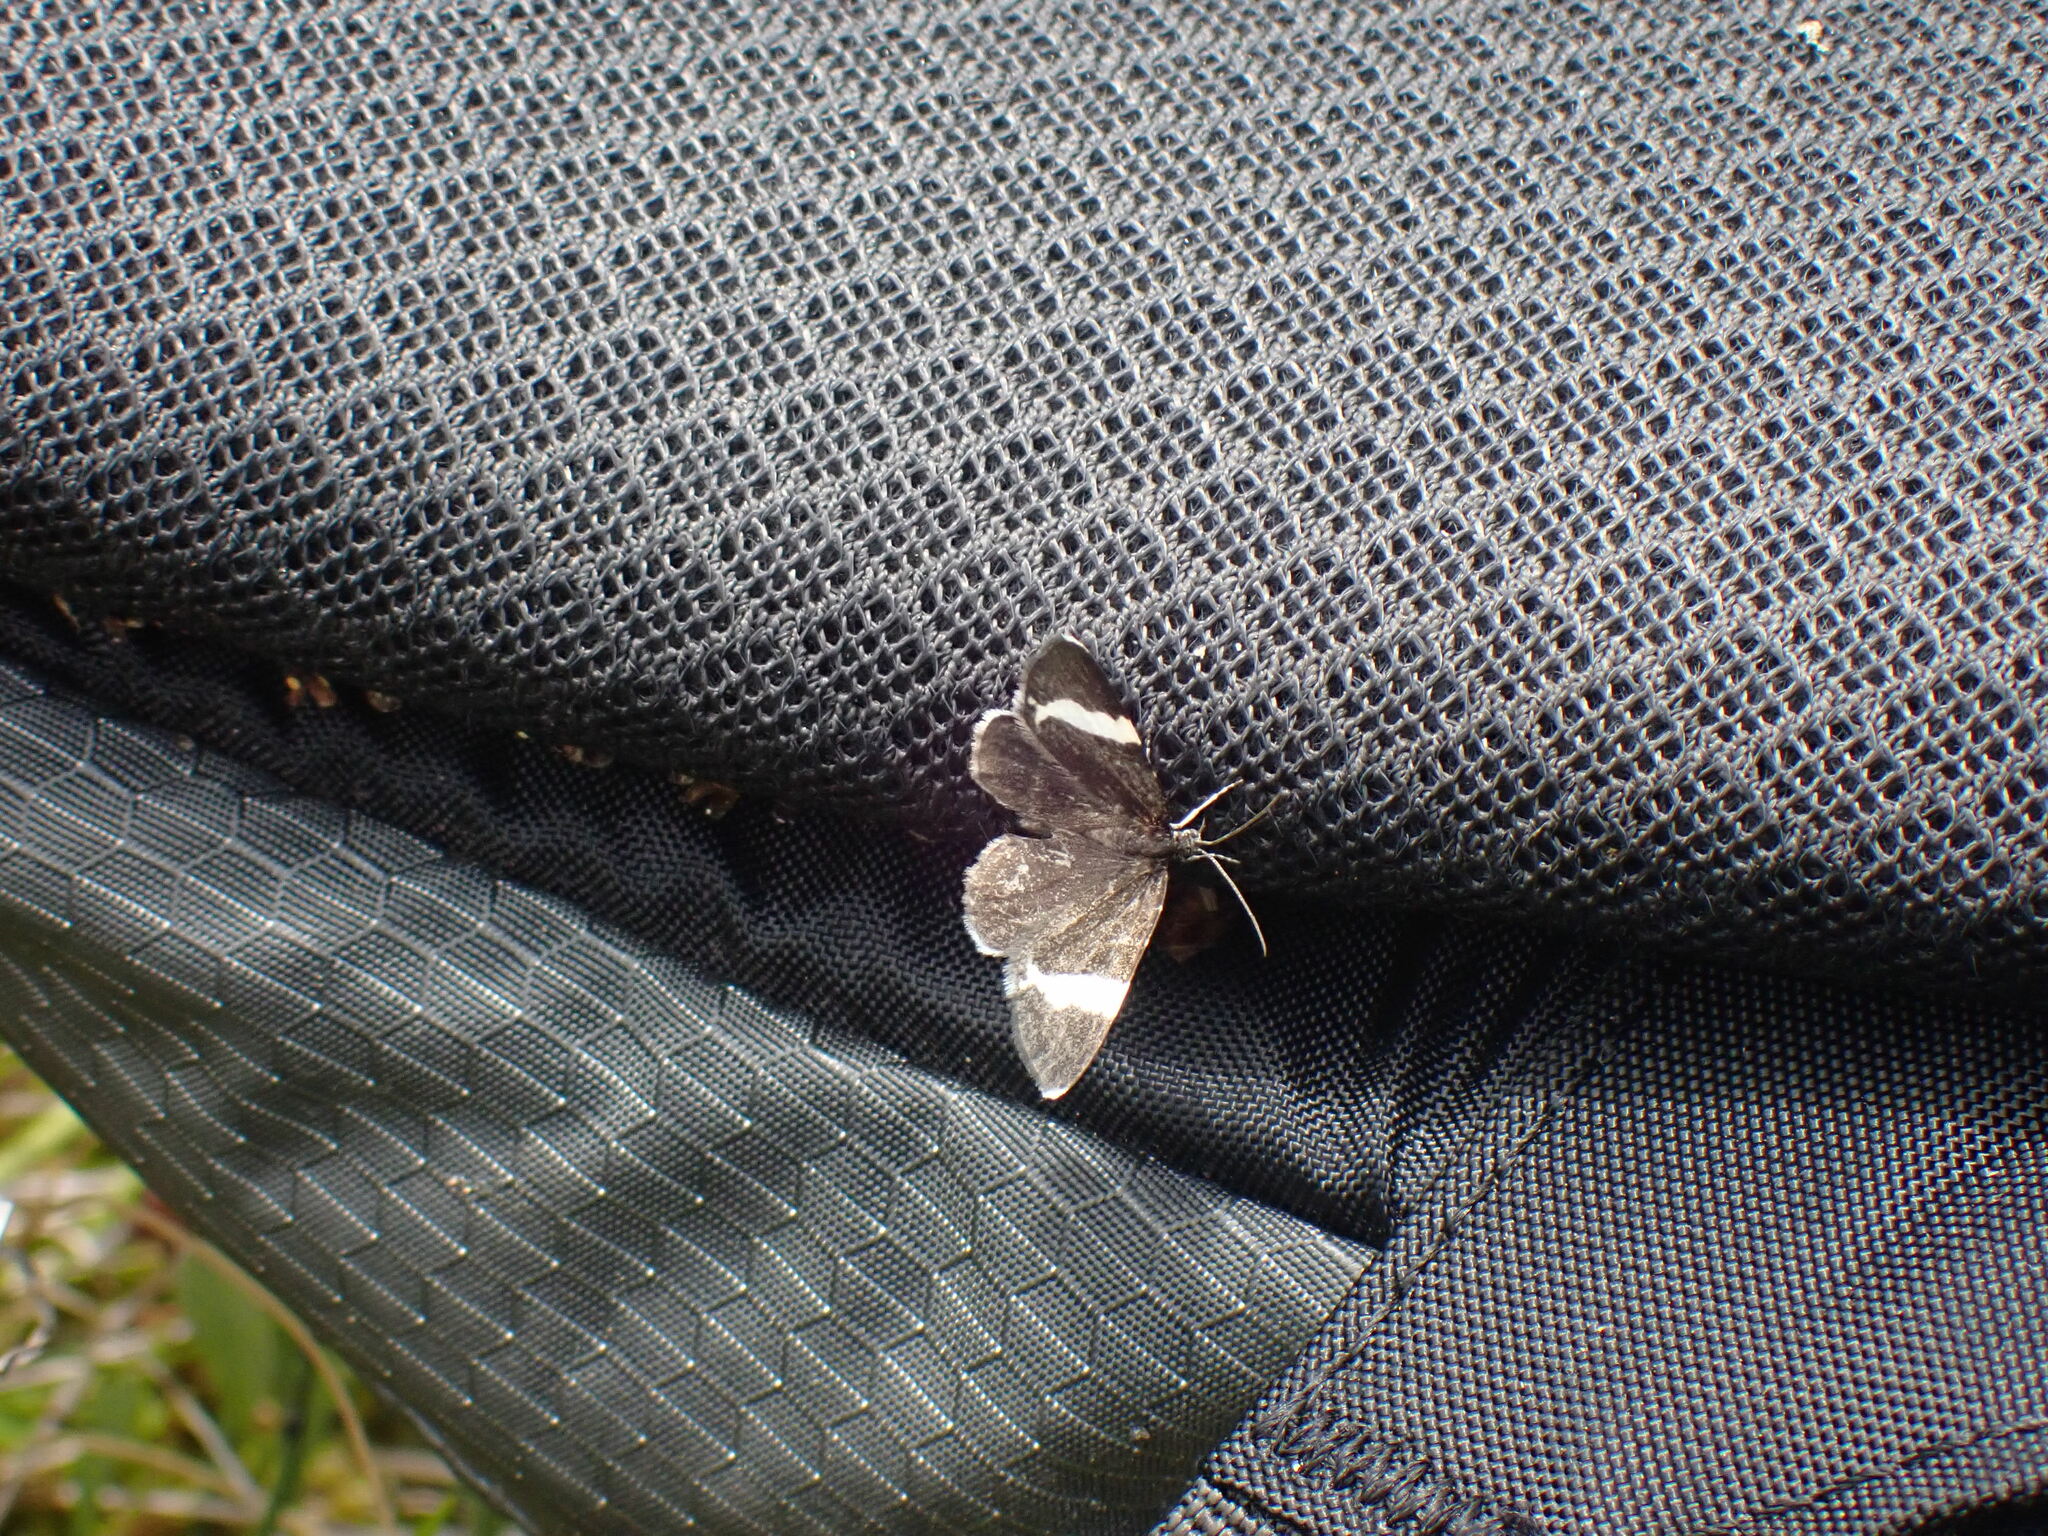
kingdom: Animalia
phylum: Arthropoda
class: Insecta
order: Lepidoptera
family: Geometridae
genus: Trichodezia
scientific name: Trichodezia albovittata
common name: White striped black
